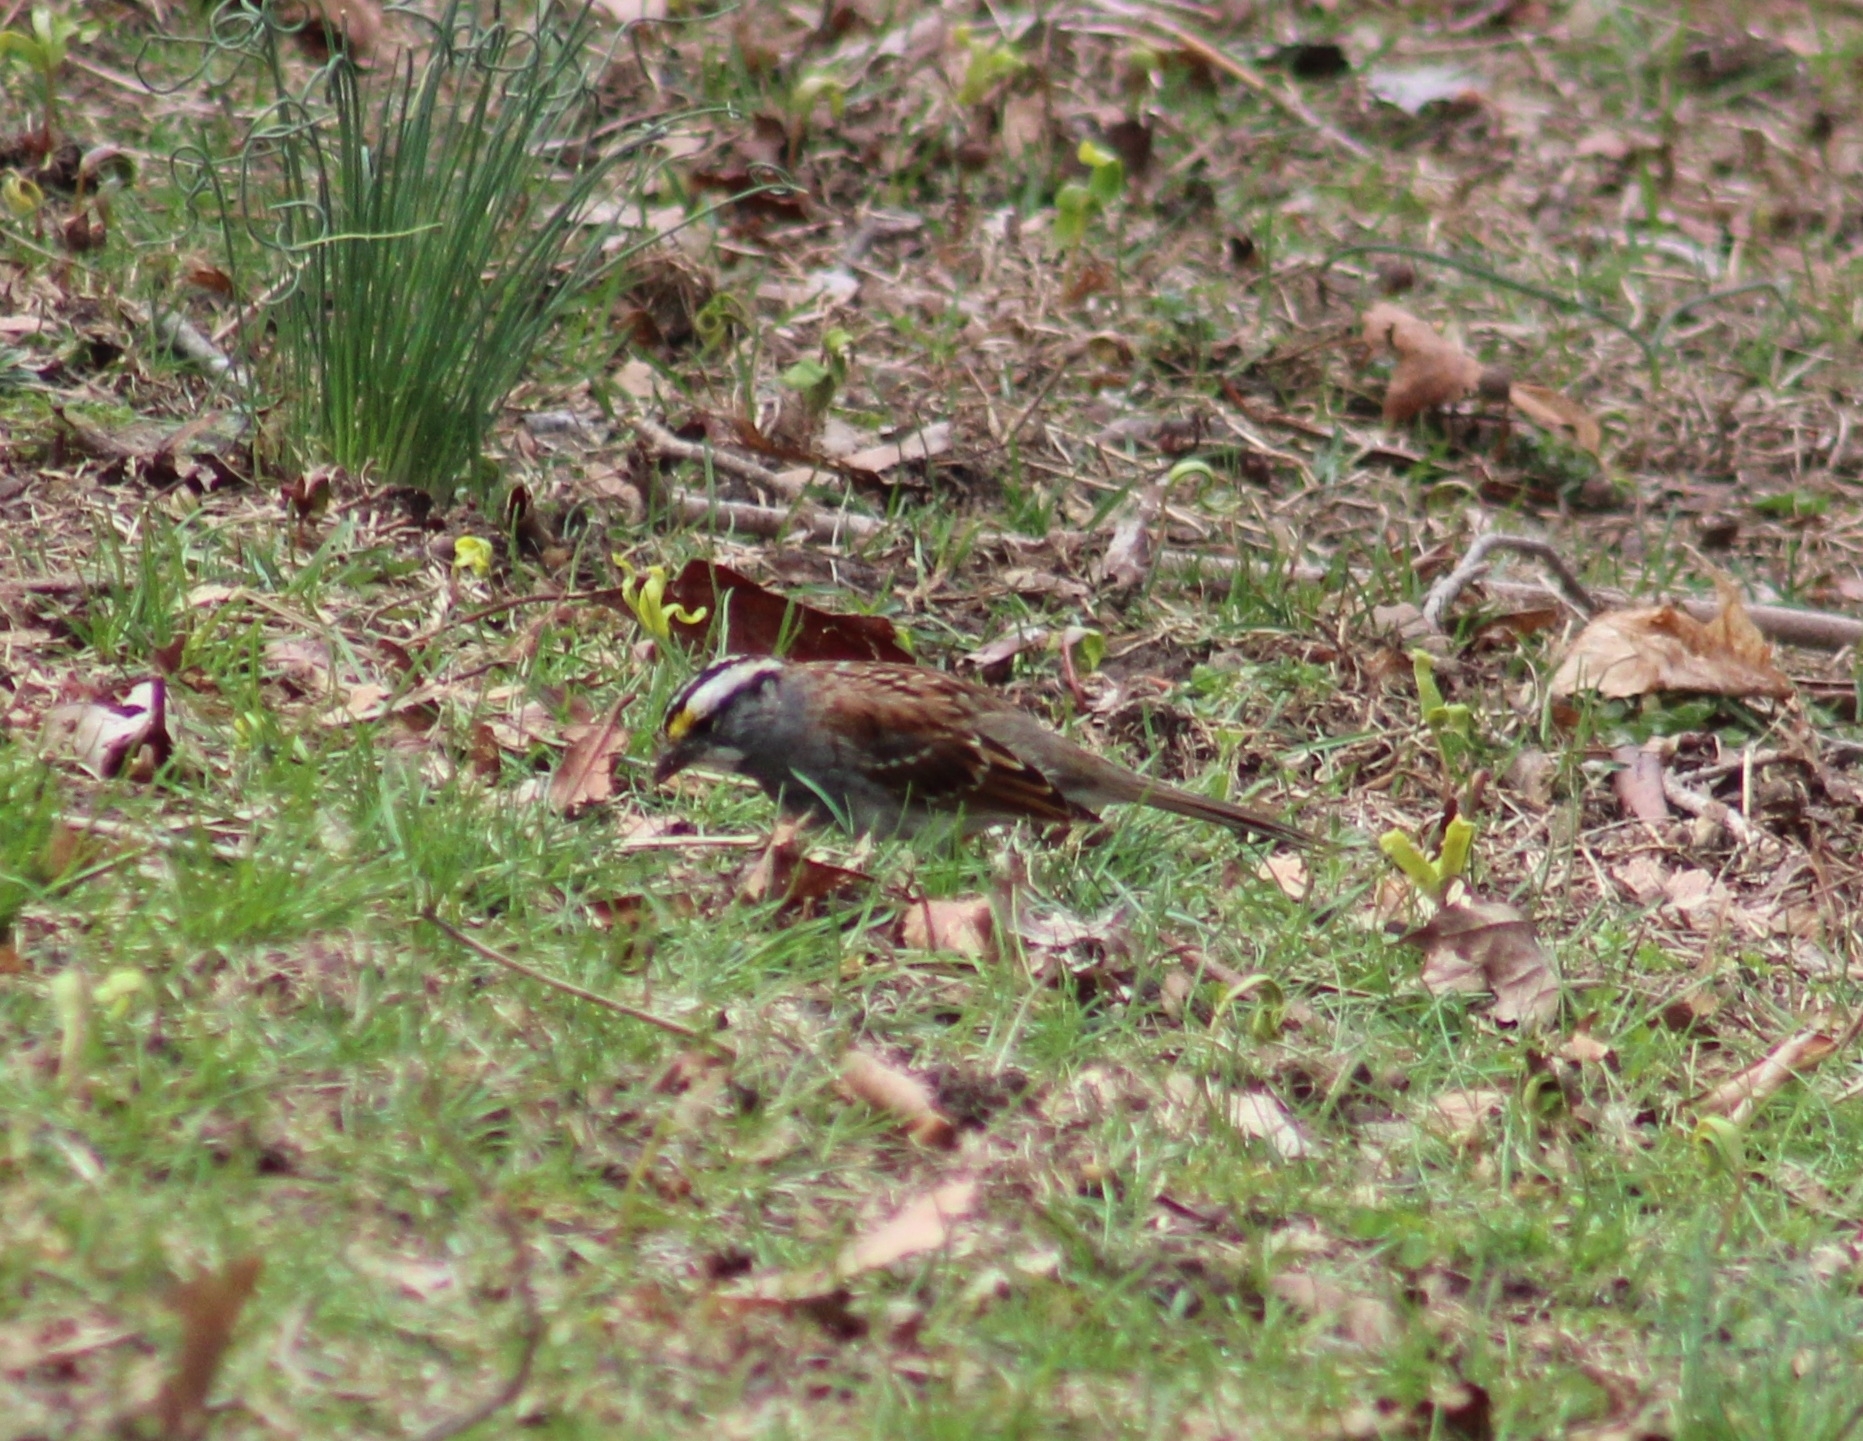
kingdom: Animalia
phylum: Chordata
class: Aves
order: Passeriformes
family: Passerellidae
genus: Zonotrichia
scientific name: Zonotrichia albicollis
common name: White-throated sparrow
